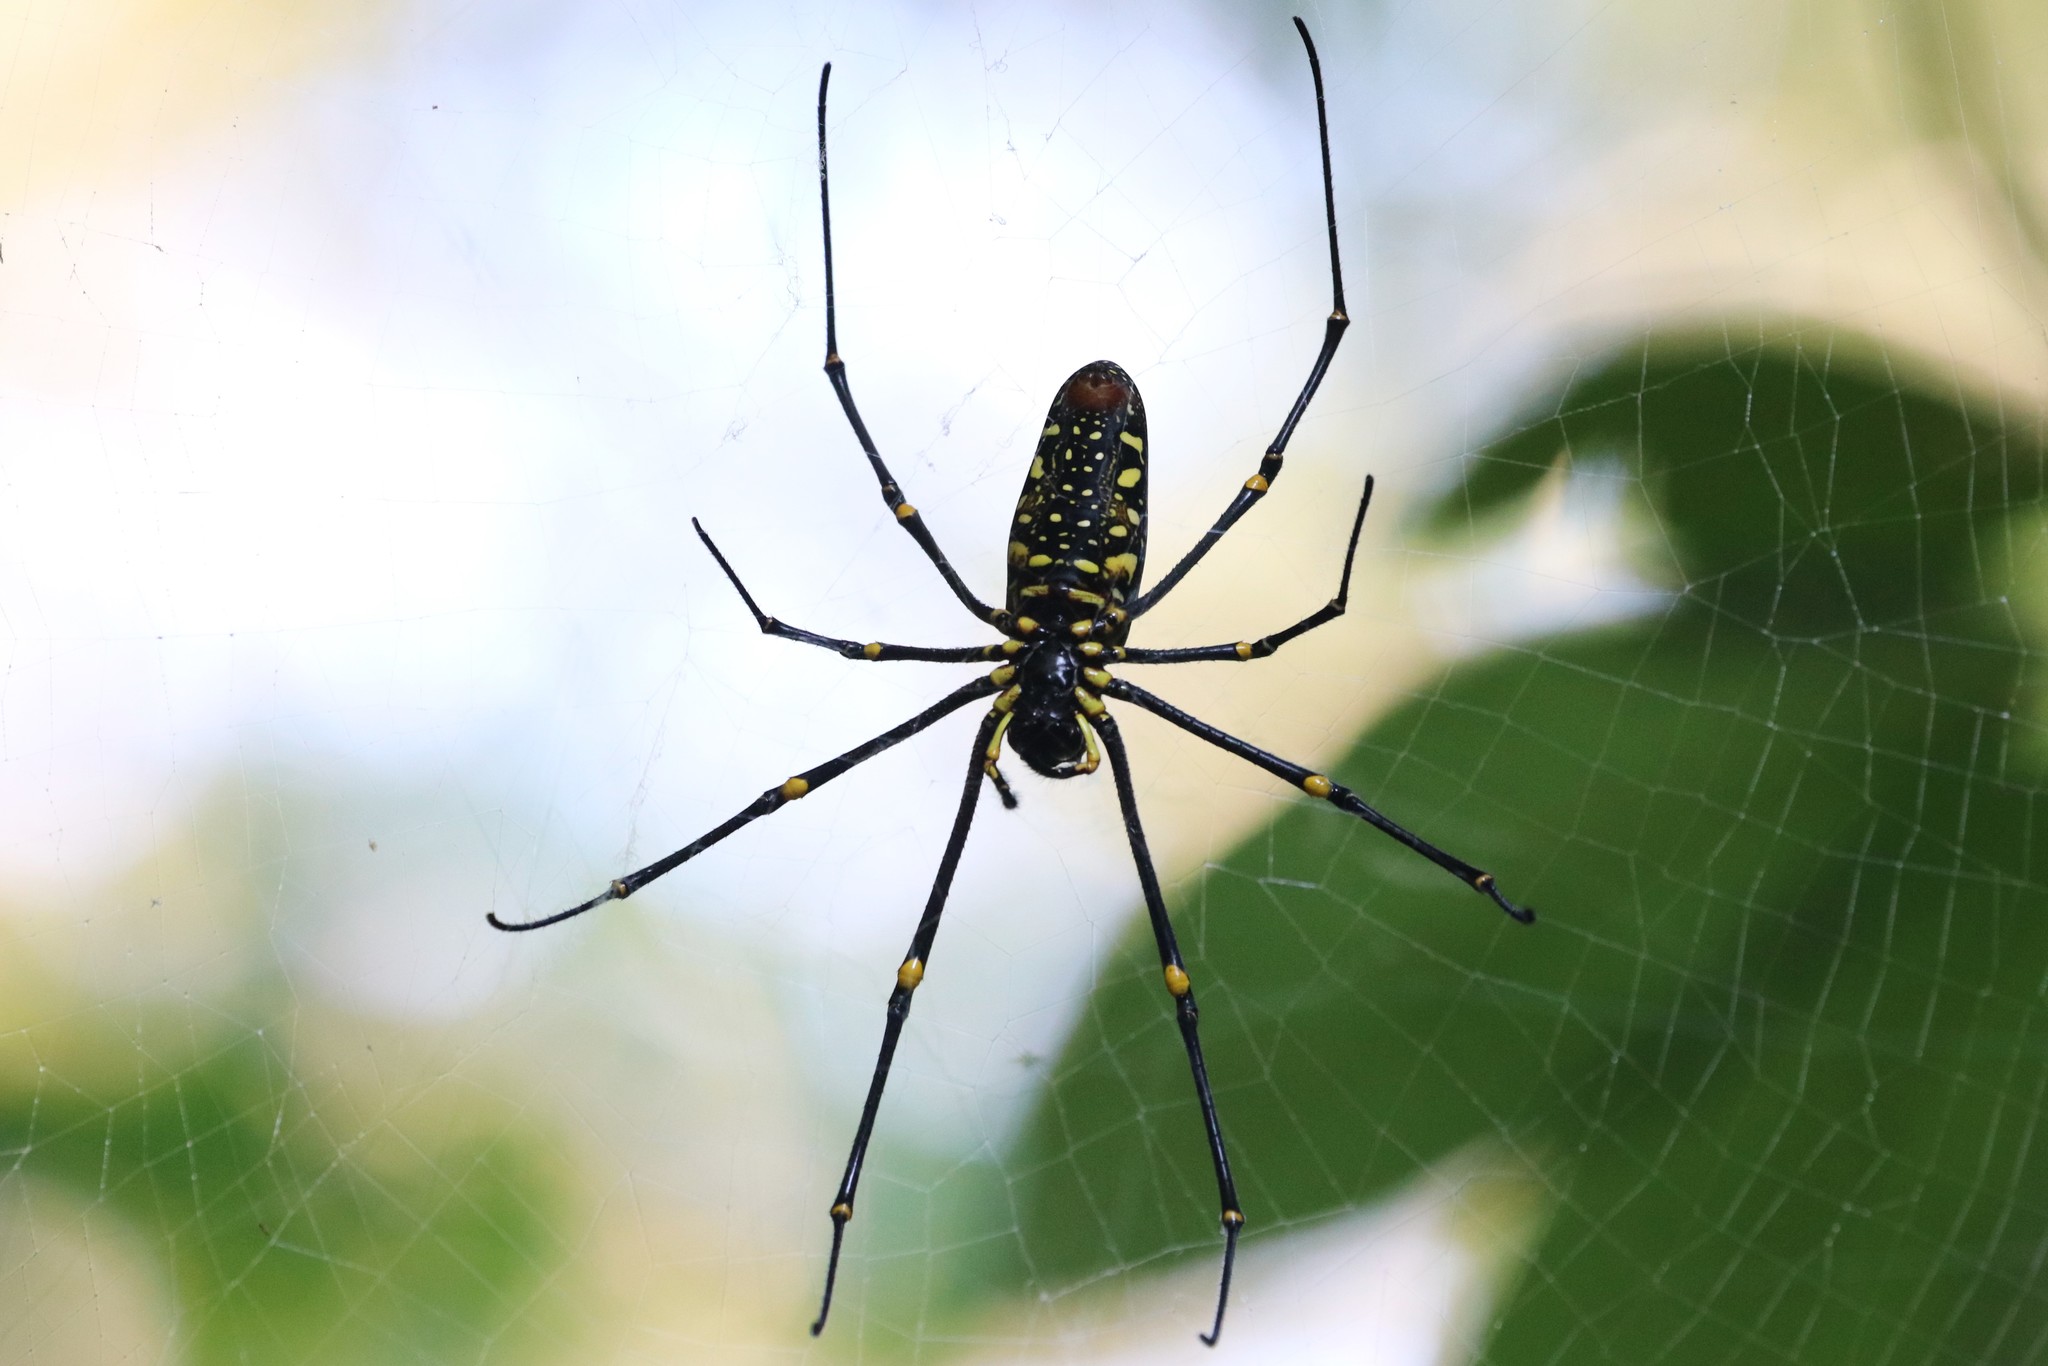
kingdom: Animalia
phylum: Arthropoda
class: Arachnida
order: Araneae
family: Araneidae
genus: Nephila
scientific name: Nephila pilipes
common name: Giant golden orb weaver
